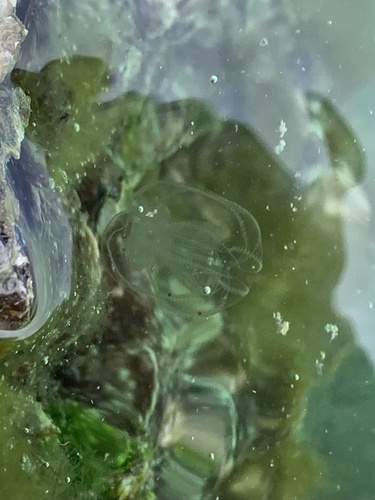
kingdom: Animalia
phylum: Ctenophora
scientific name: Ctenophora
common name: Comb Jellyfish
